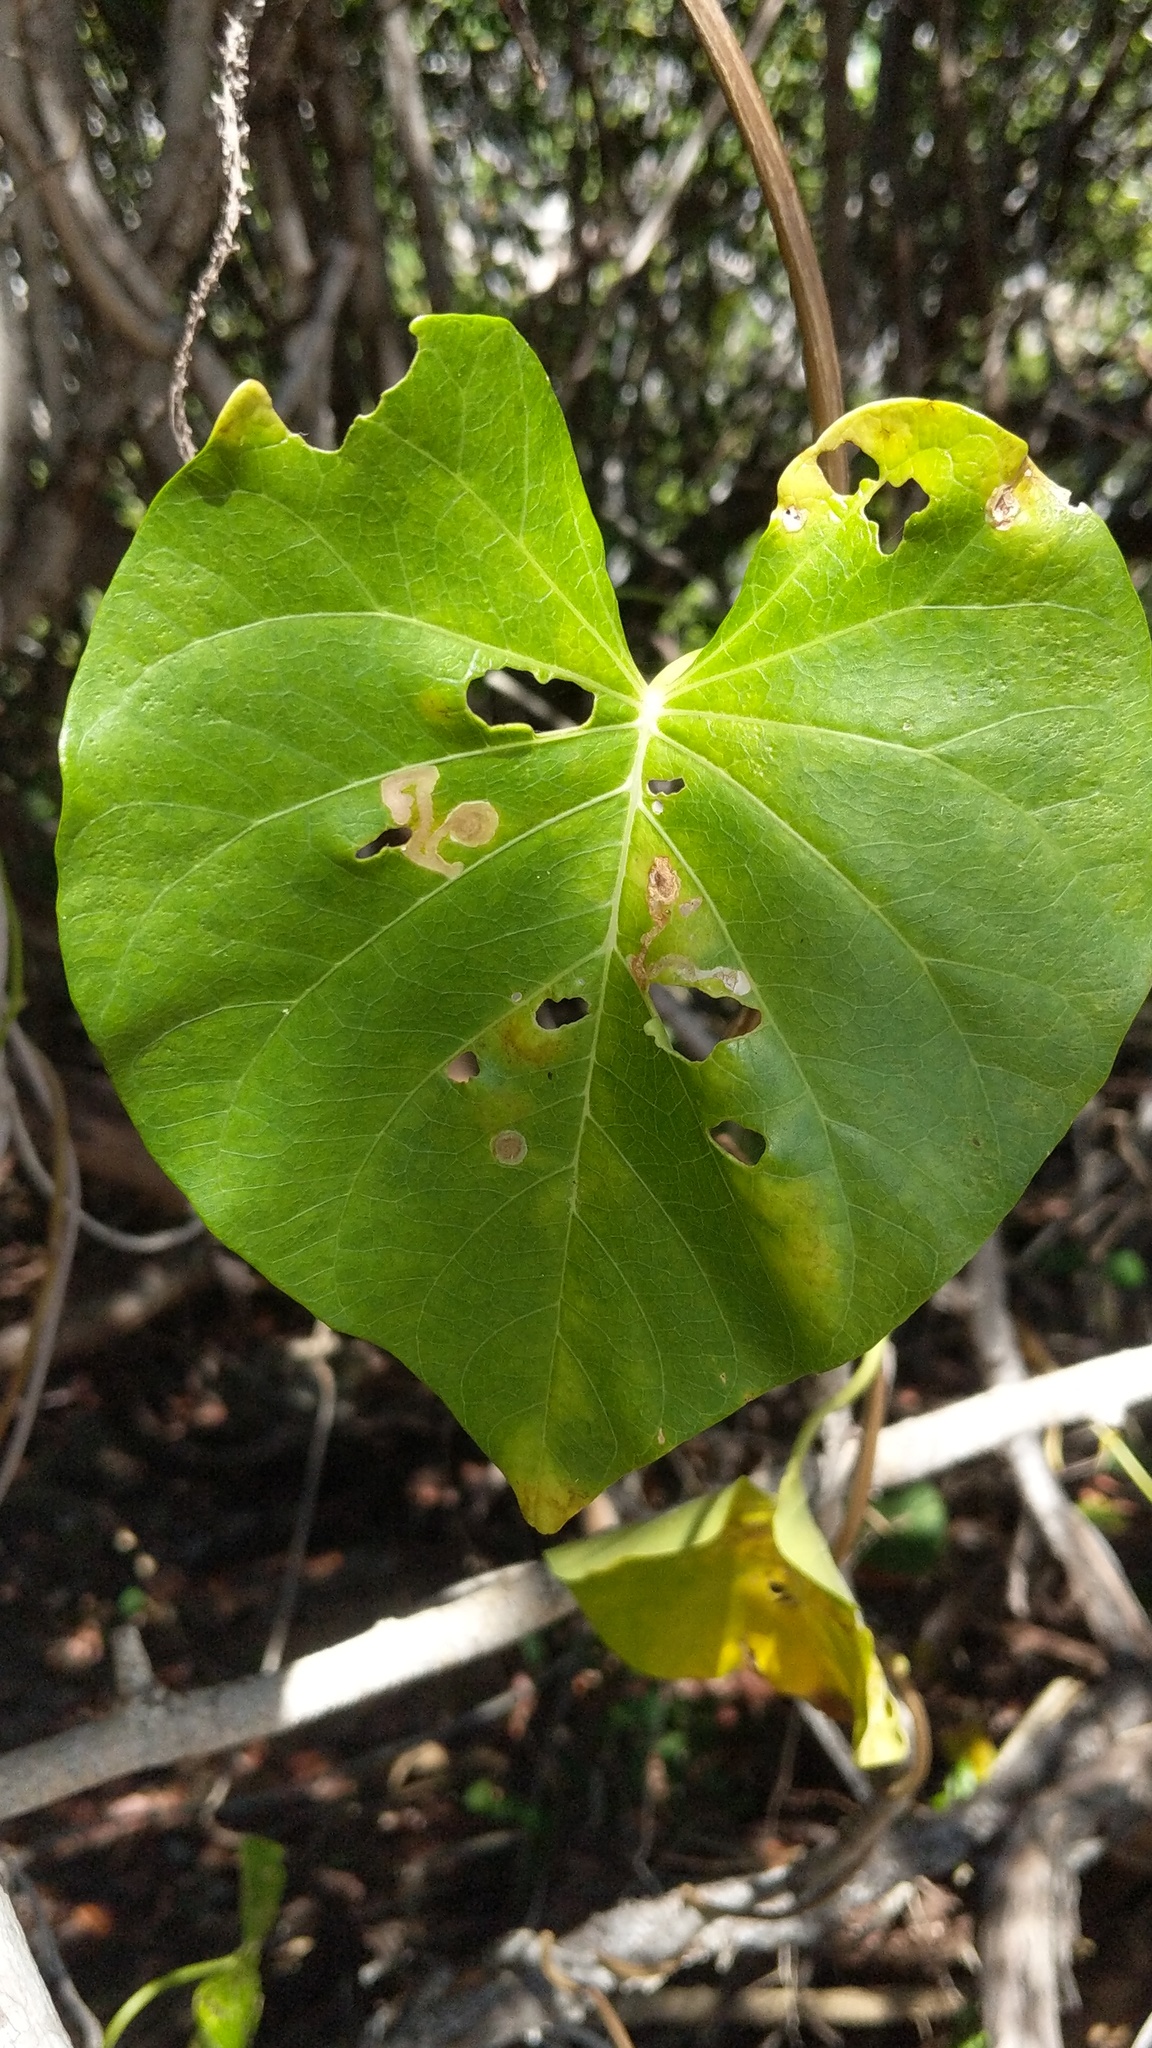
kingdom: Plantae
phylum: Tracheophyta
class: Magnoliopsida
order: Solanales
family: Convolvulaceae
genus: Ipomoea
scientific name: Ipomoea violacea
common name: Beach moonflower
